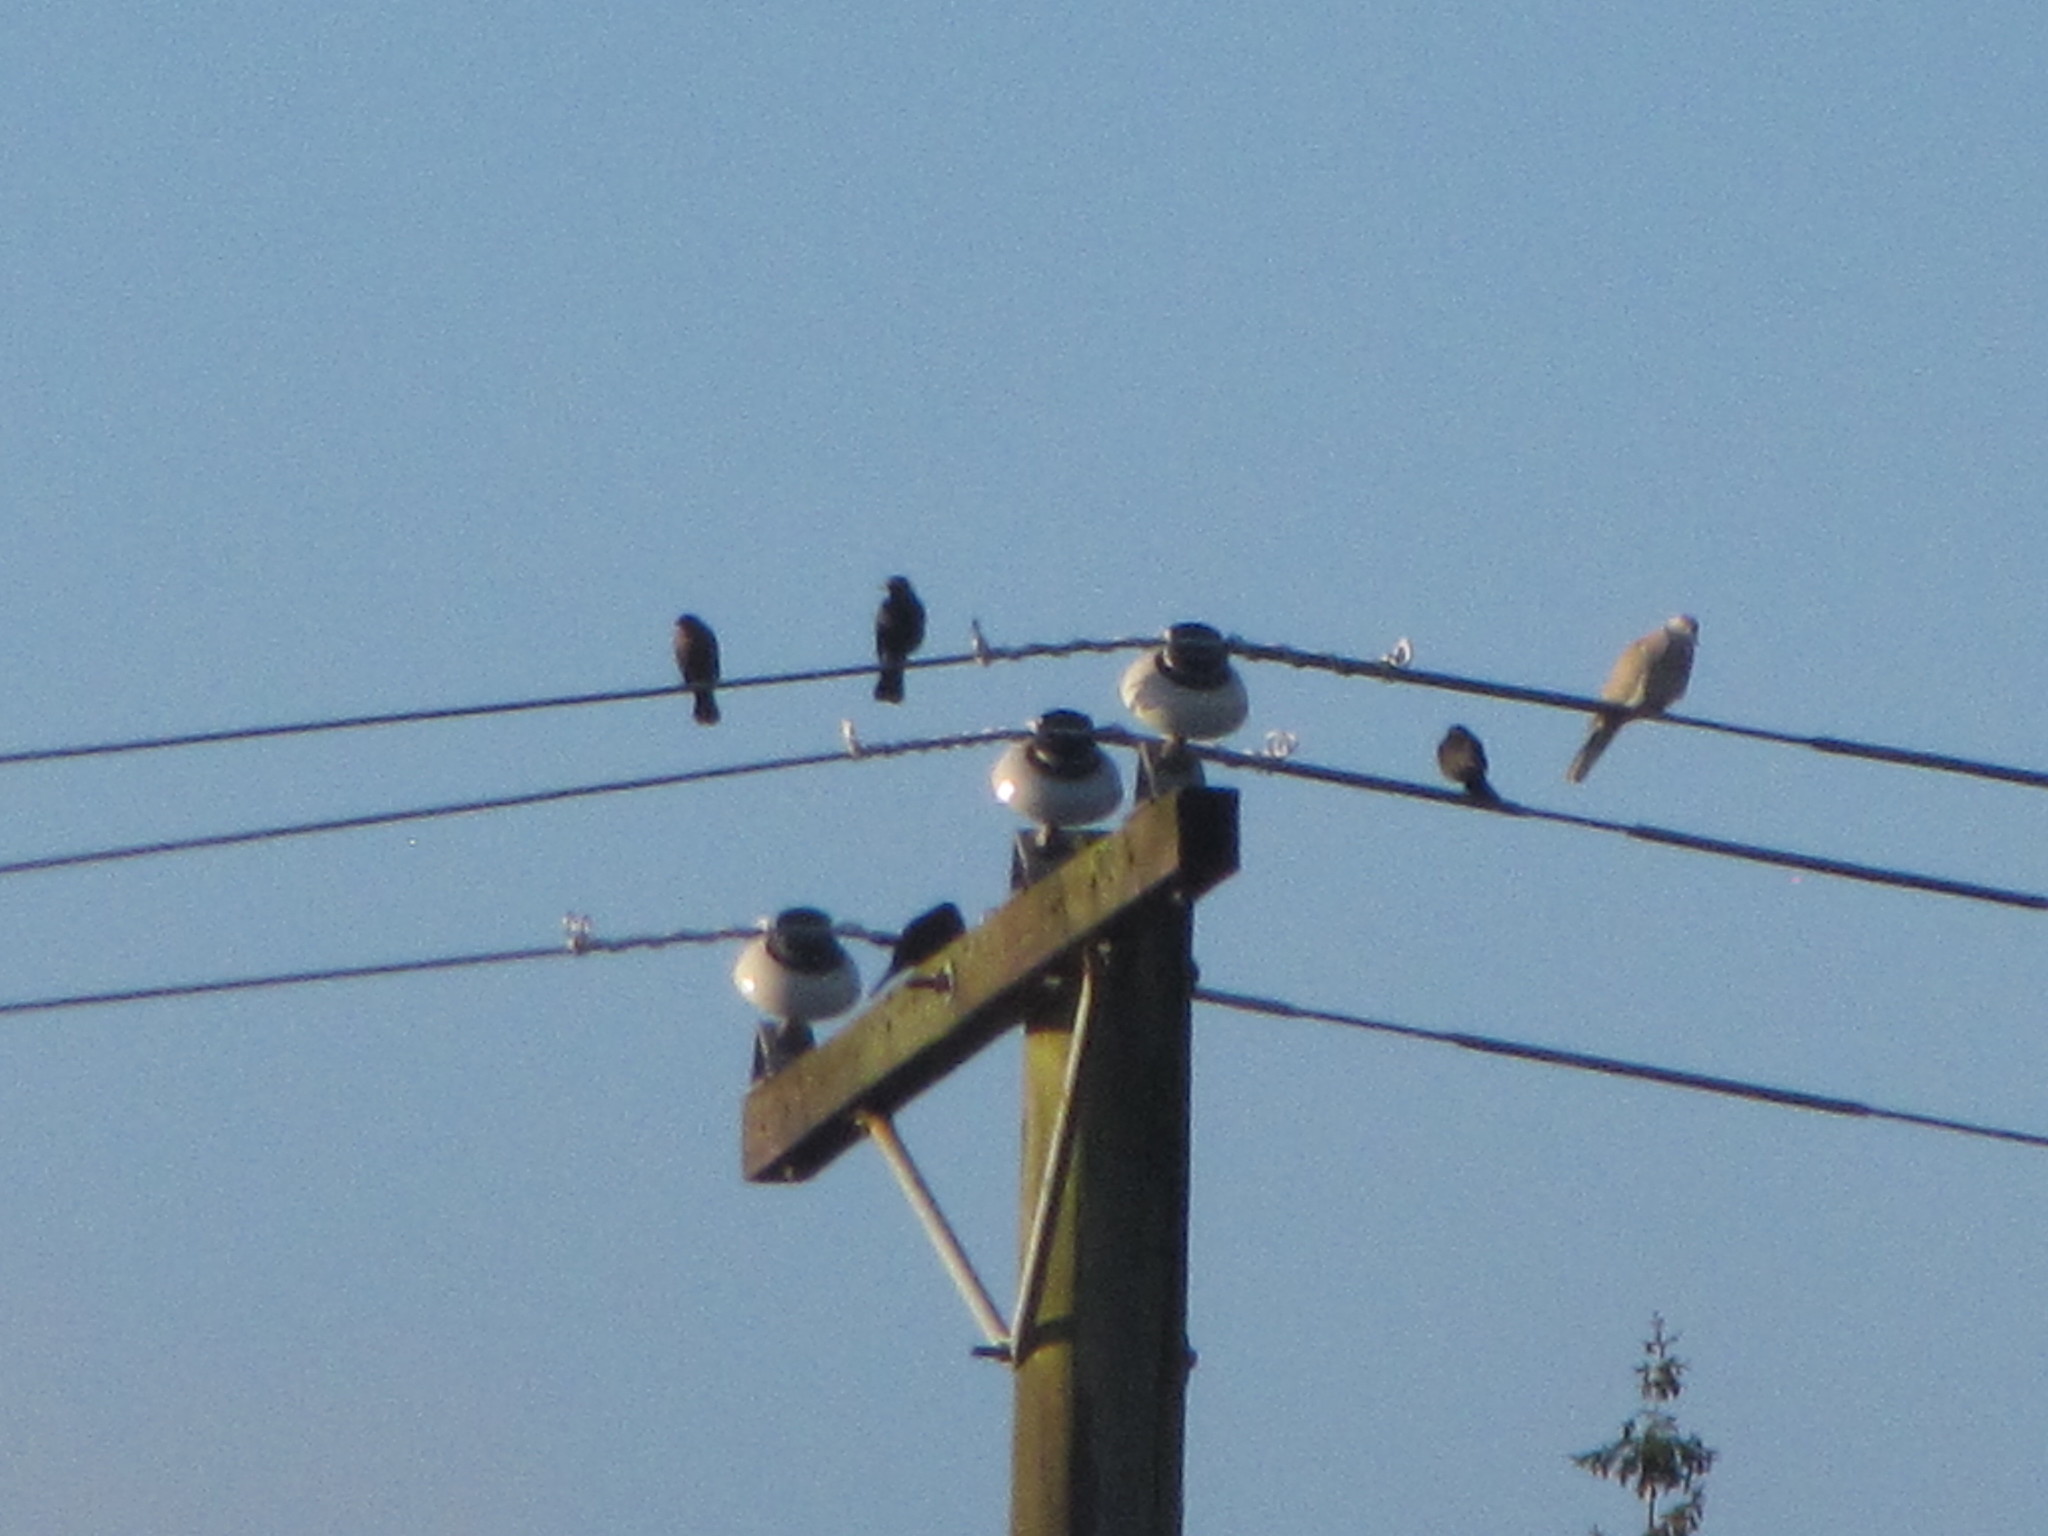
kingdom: Animalia
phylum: Chordata
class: Aves
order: Columbiformes
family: Columbidae
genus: Streptopelia
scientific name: Streptopelia decaocto
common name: Eurasian collared dove
